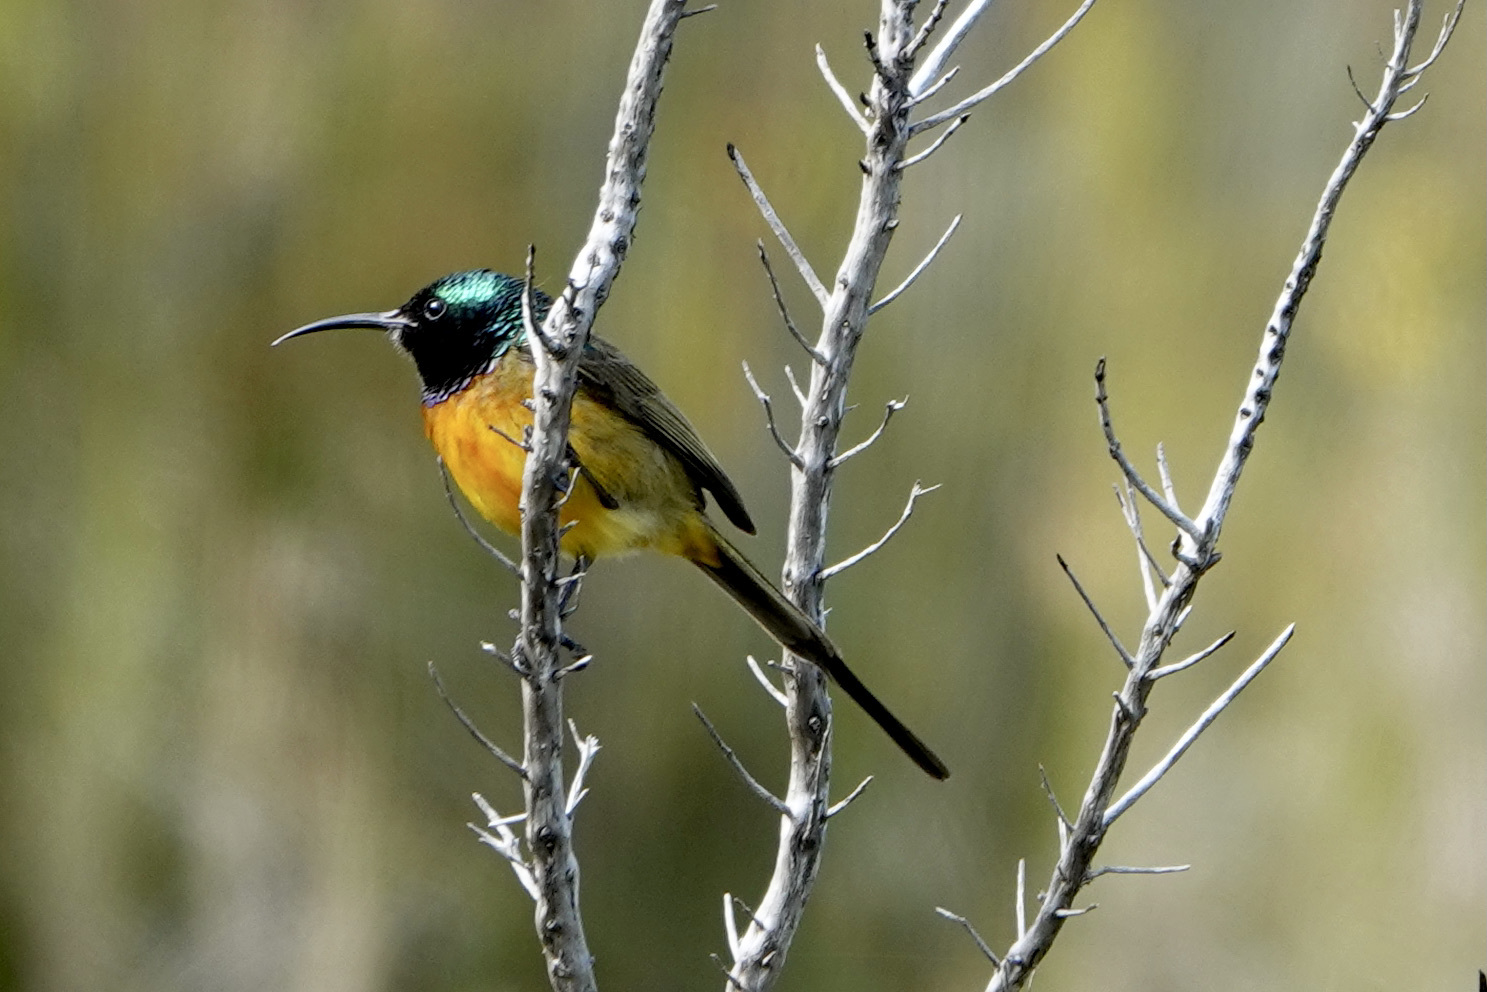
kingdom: Animalia
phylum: Chordata
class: Aves
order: Passeriformes
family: Nectariniidae
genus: Anthobaphes
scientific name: Anthobaphes violacea
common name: Orange-breasted sunbird
